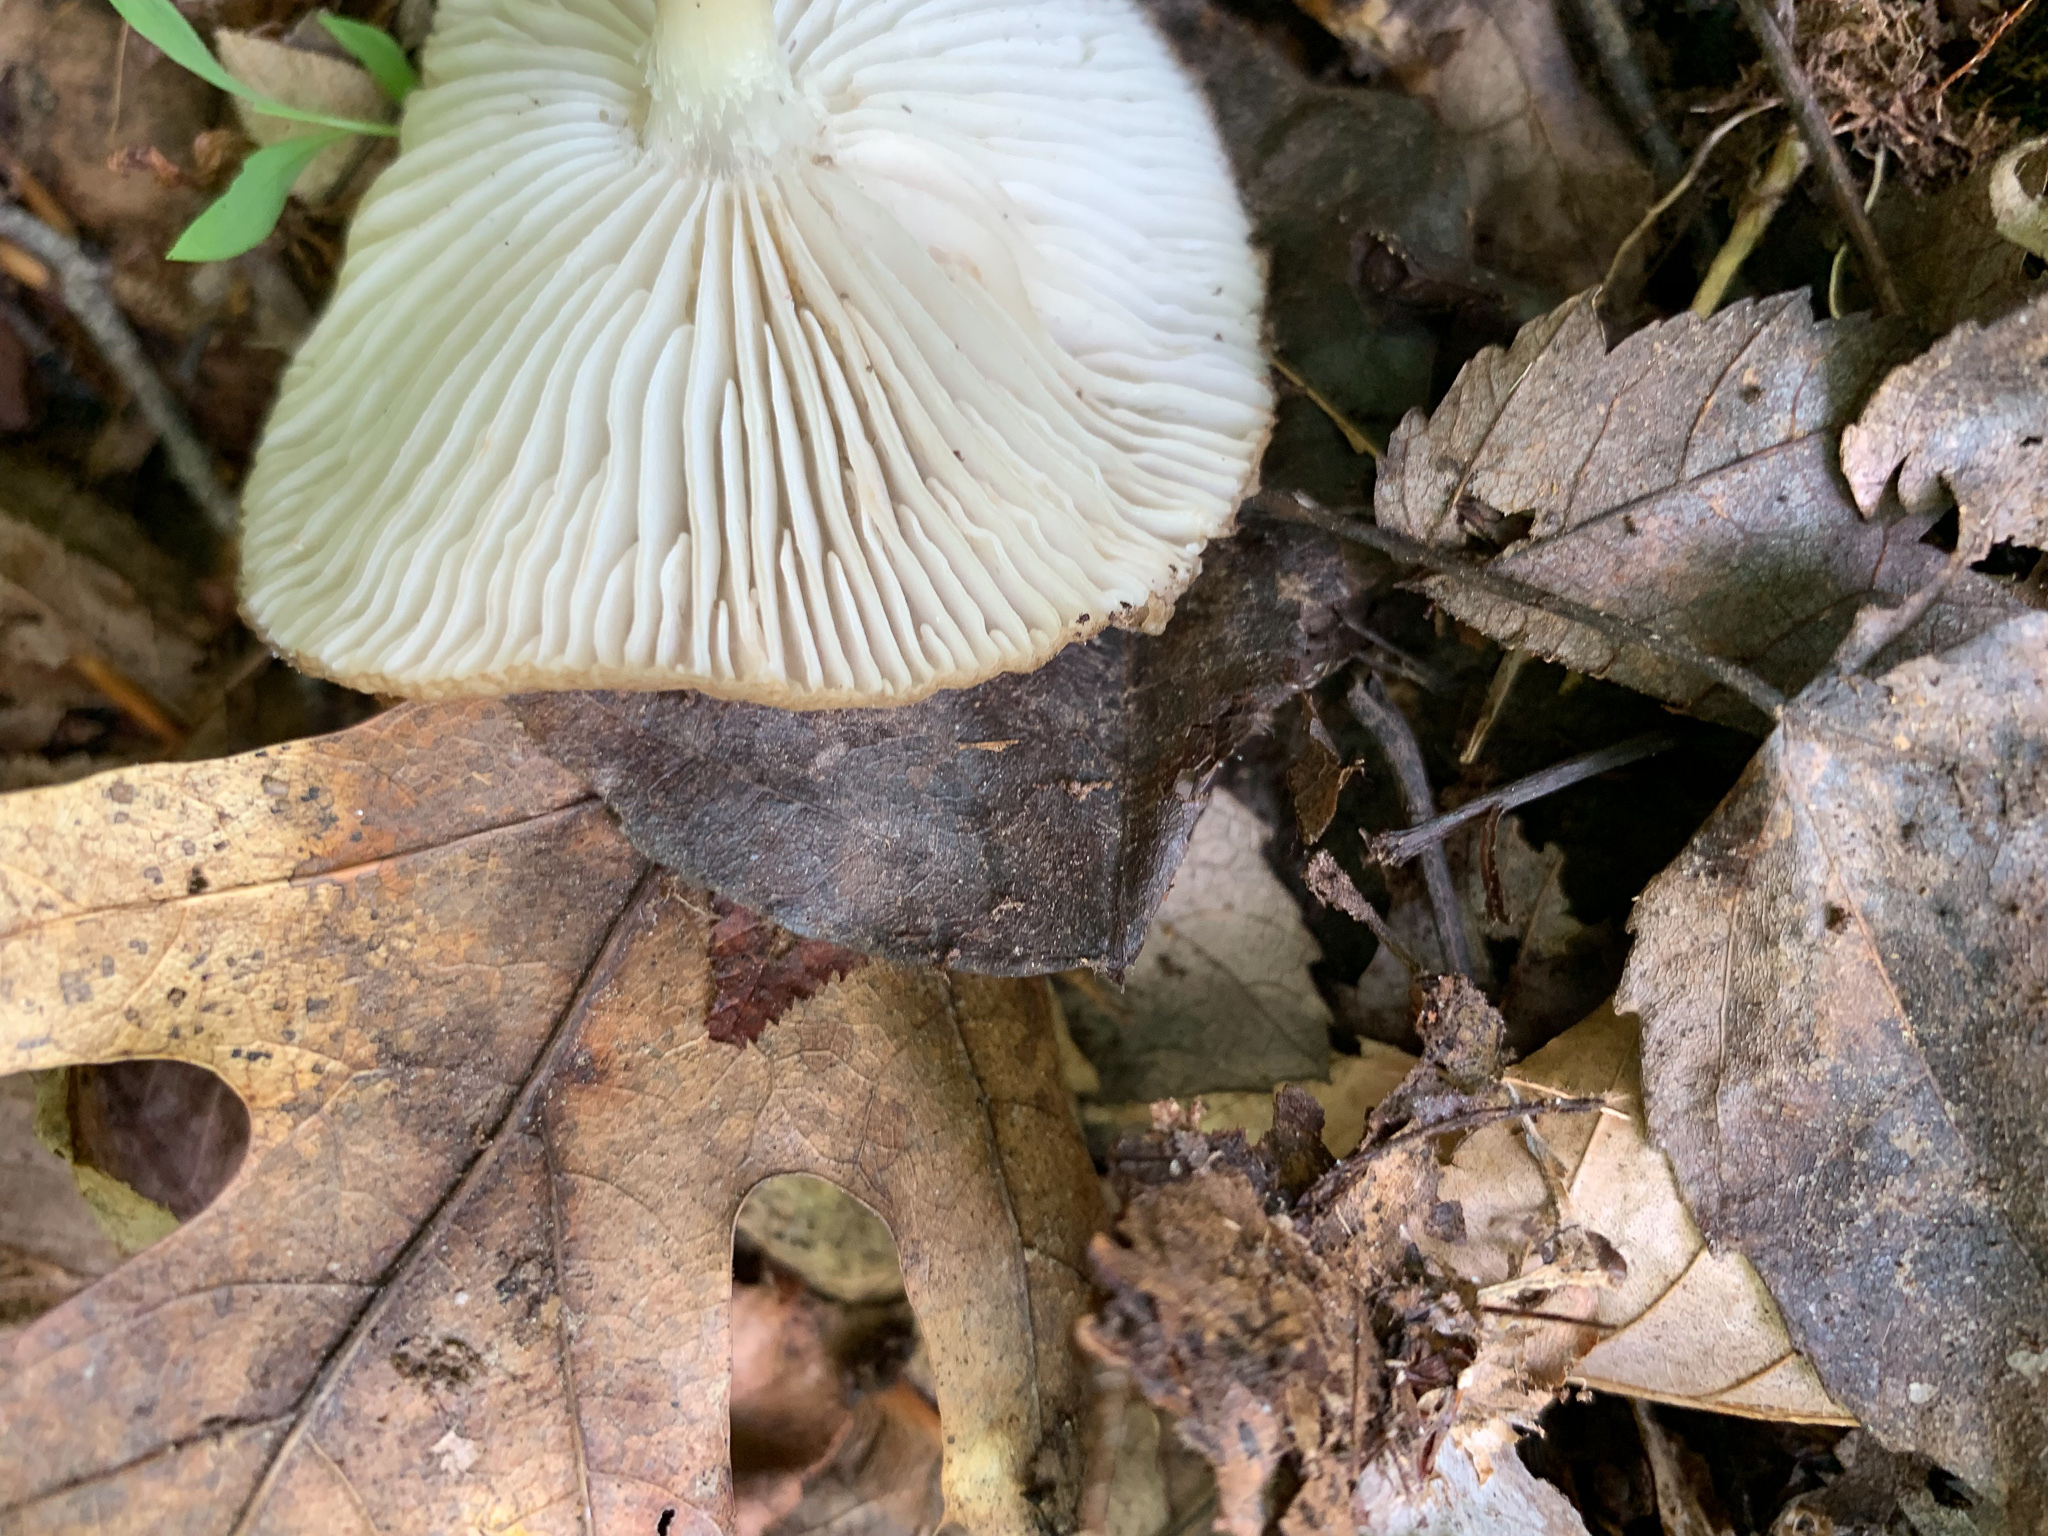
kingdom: Fungi
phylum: Basidiomycota
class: Agaricomycetes
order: Agaricales
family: Physalacriaceae
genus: Hymenopellis
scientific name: Hymenopellis furfuracea
